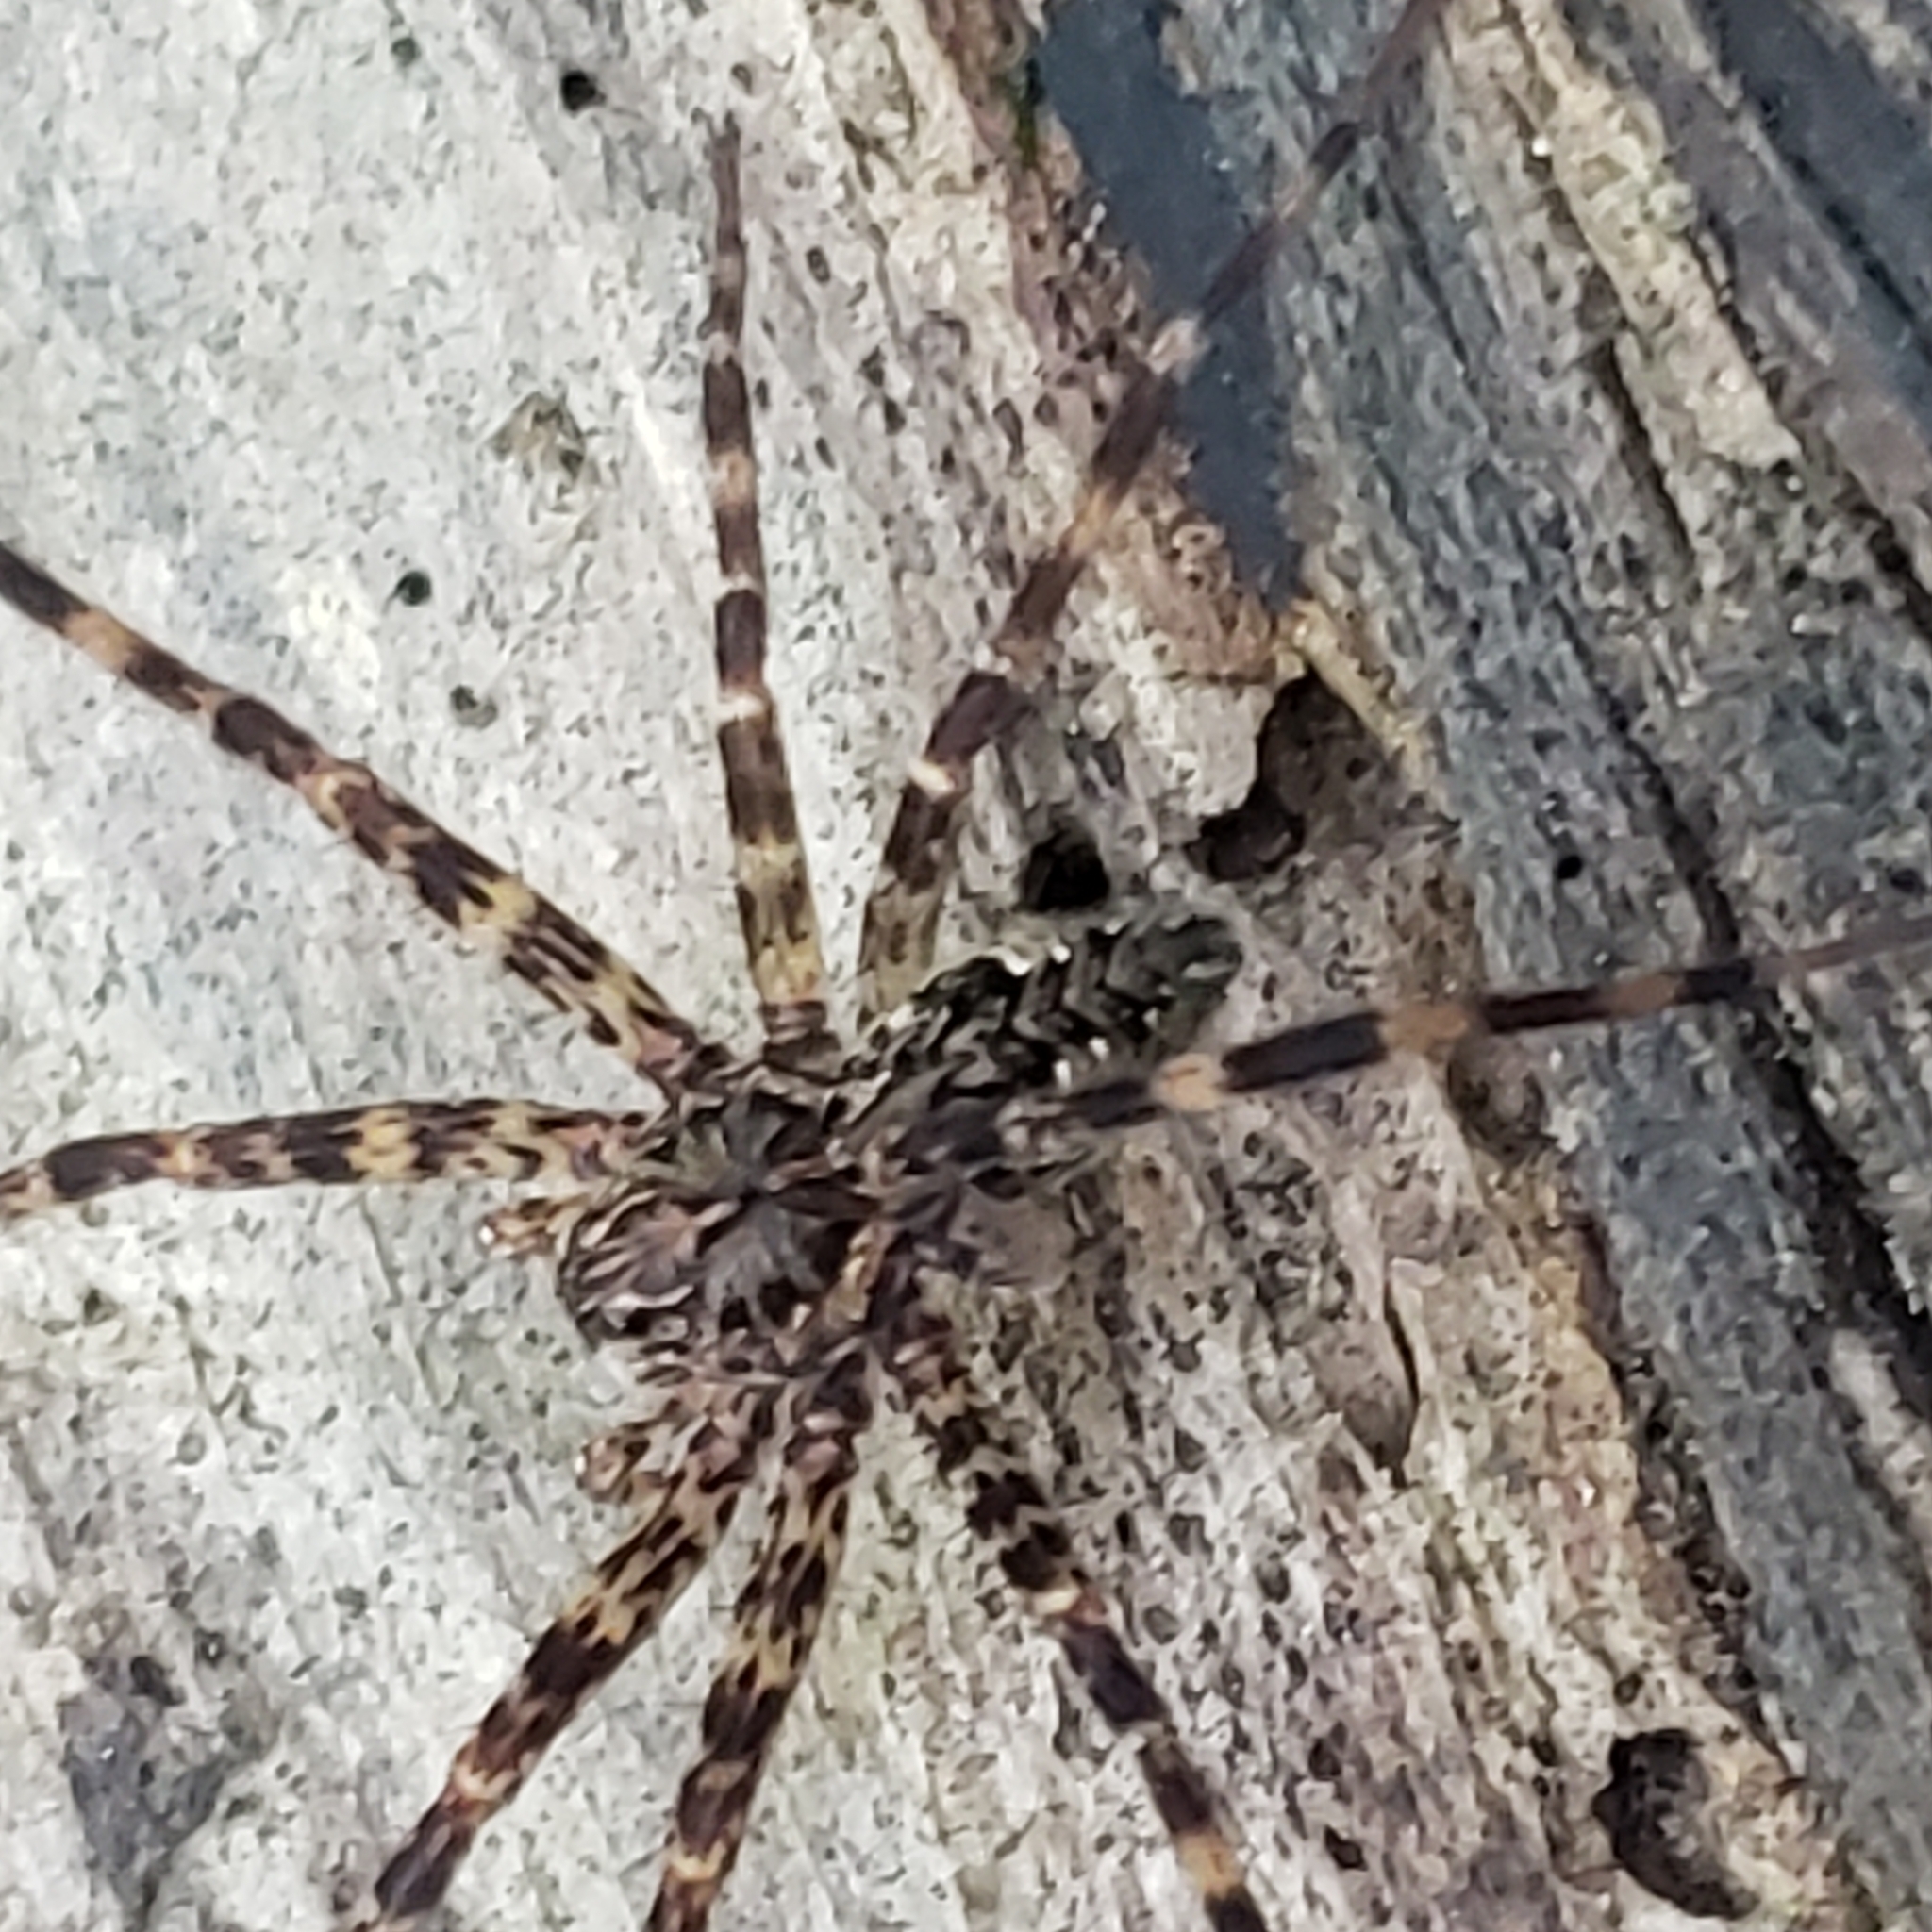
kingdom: Animalia
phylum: Arthropoda
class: Arachnida
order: Araneae
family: Pisauridae
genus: Dolomedes
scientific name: Dolomedes tenebrosus
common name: Dark fishing spider
